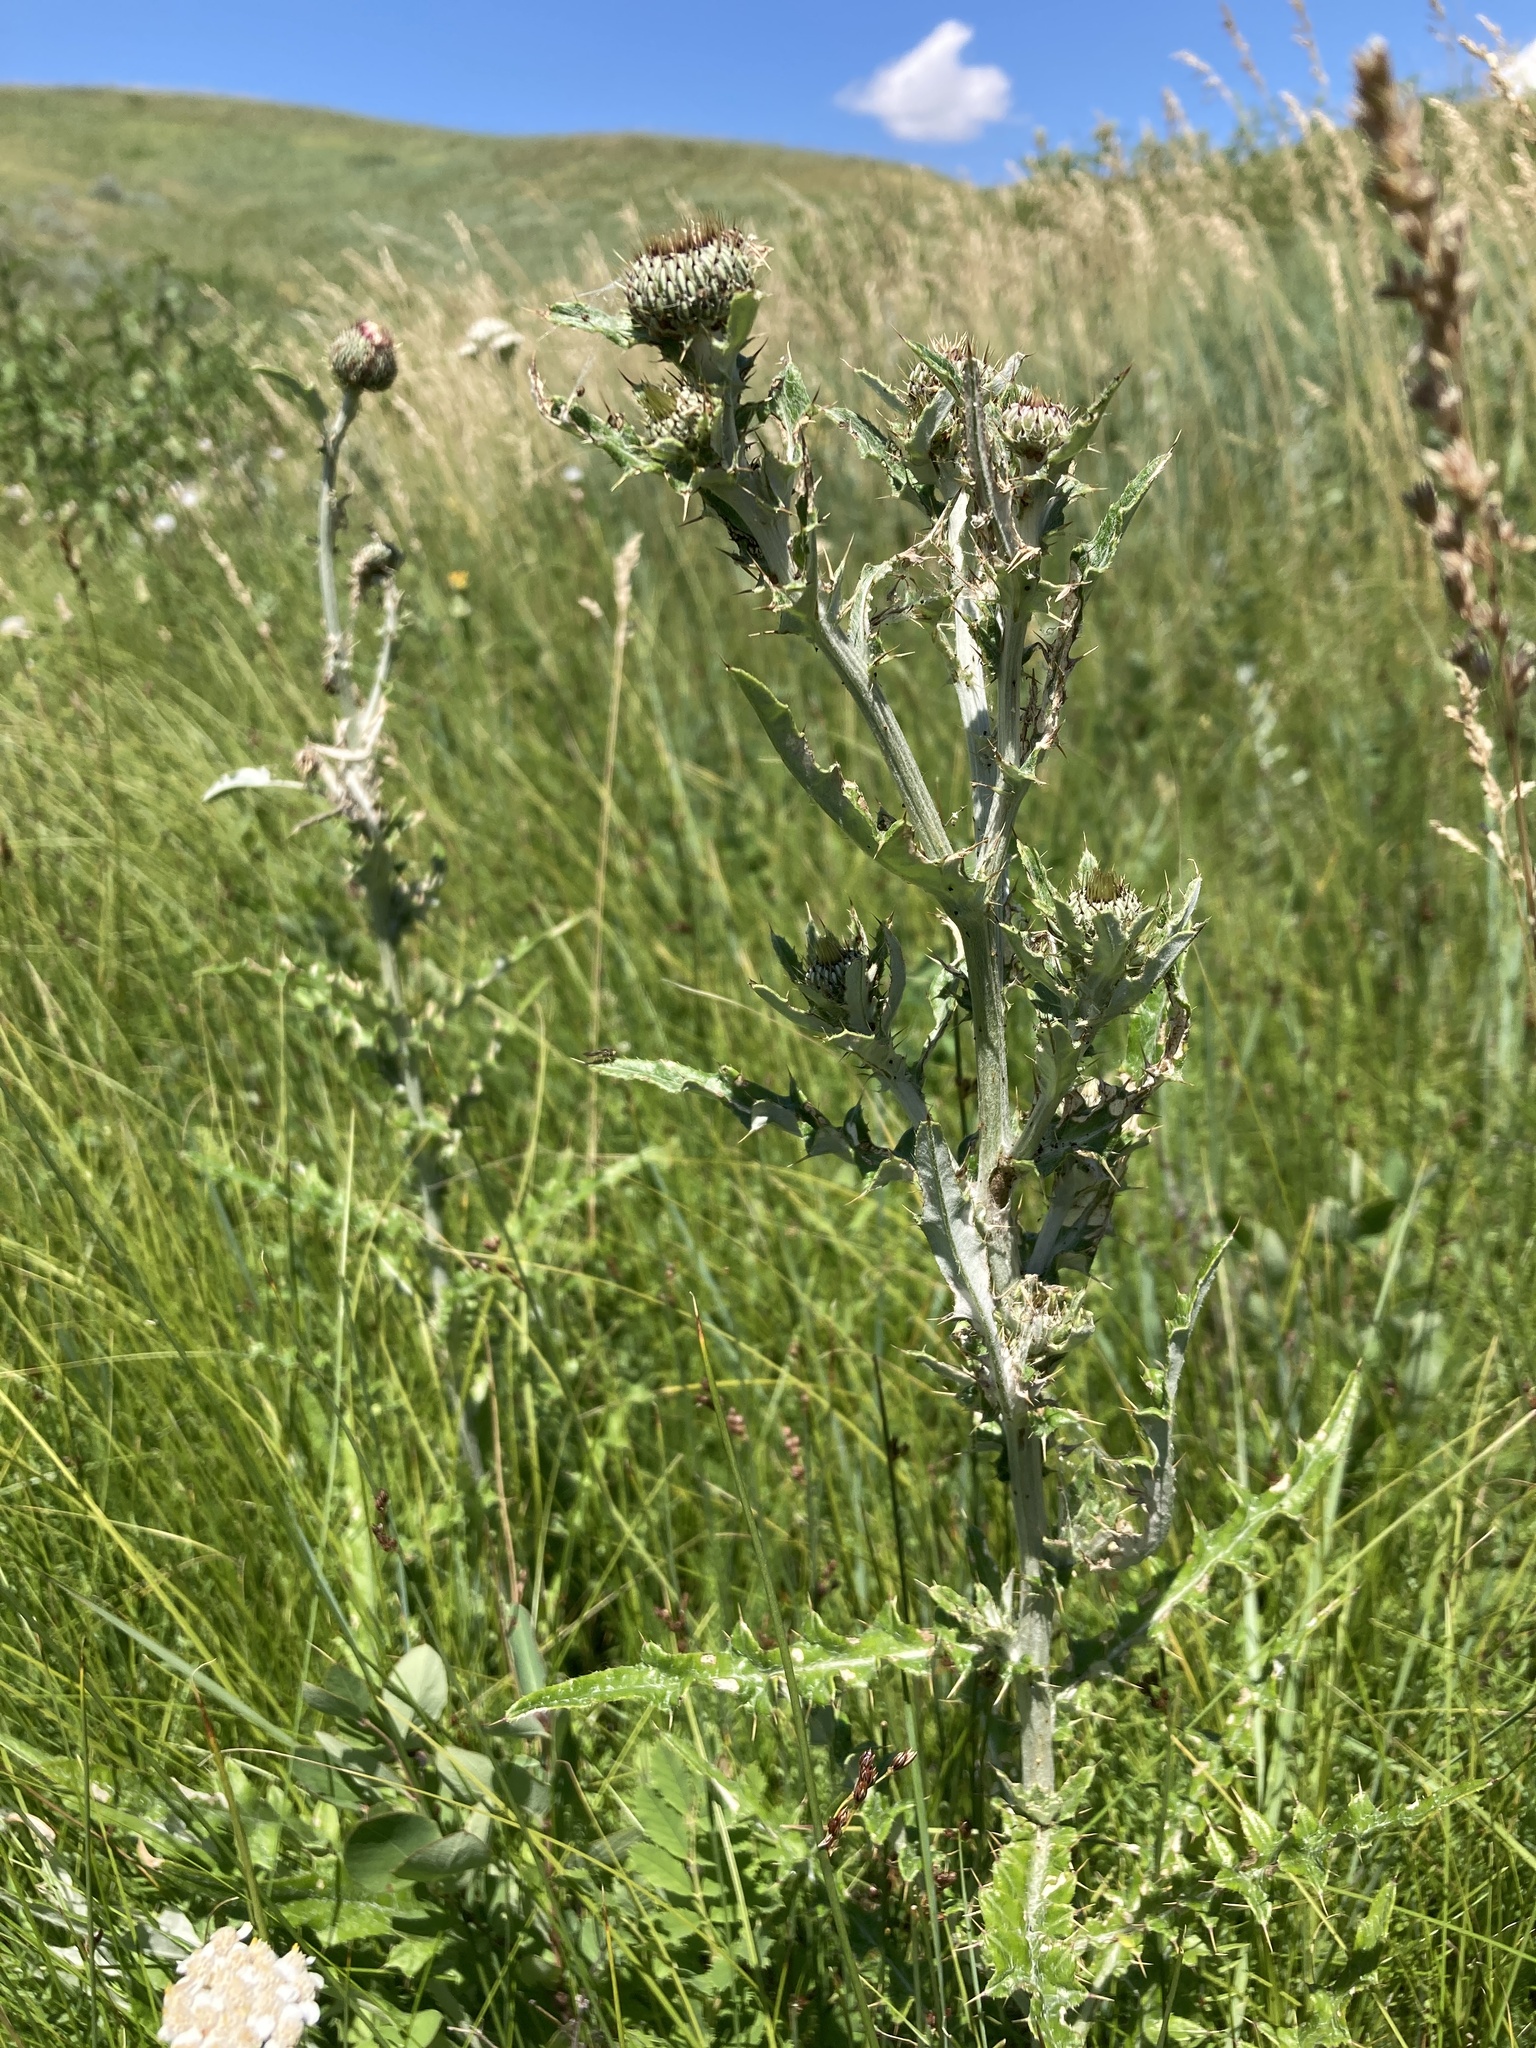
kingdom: Plantae
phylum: Tracheophyta
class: Magnoliopsida
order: Asterales
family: Asteraceae
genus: Cirsium
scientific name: Cirsium flodmanii
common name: Flodman's thistle
